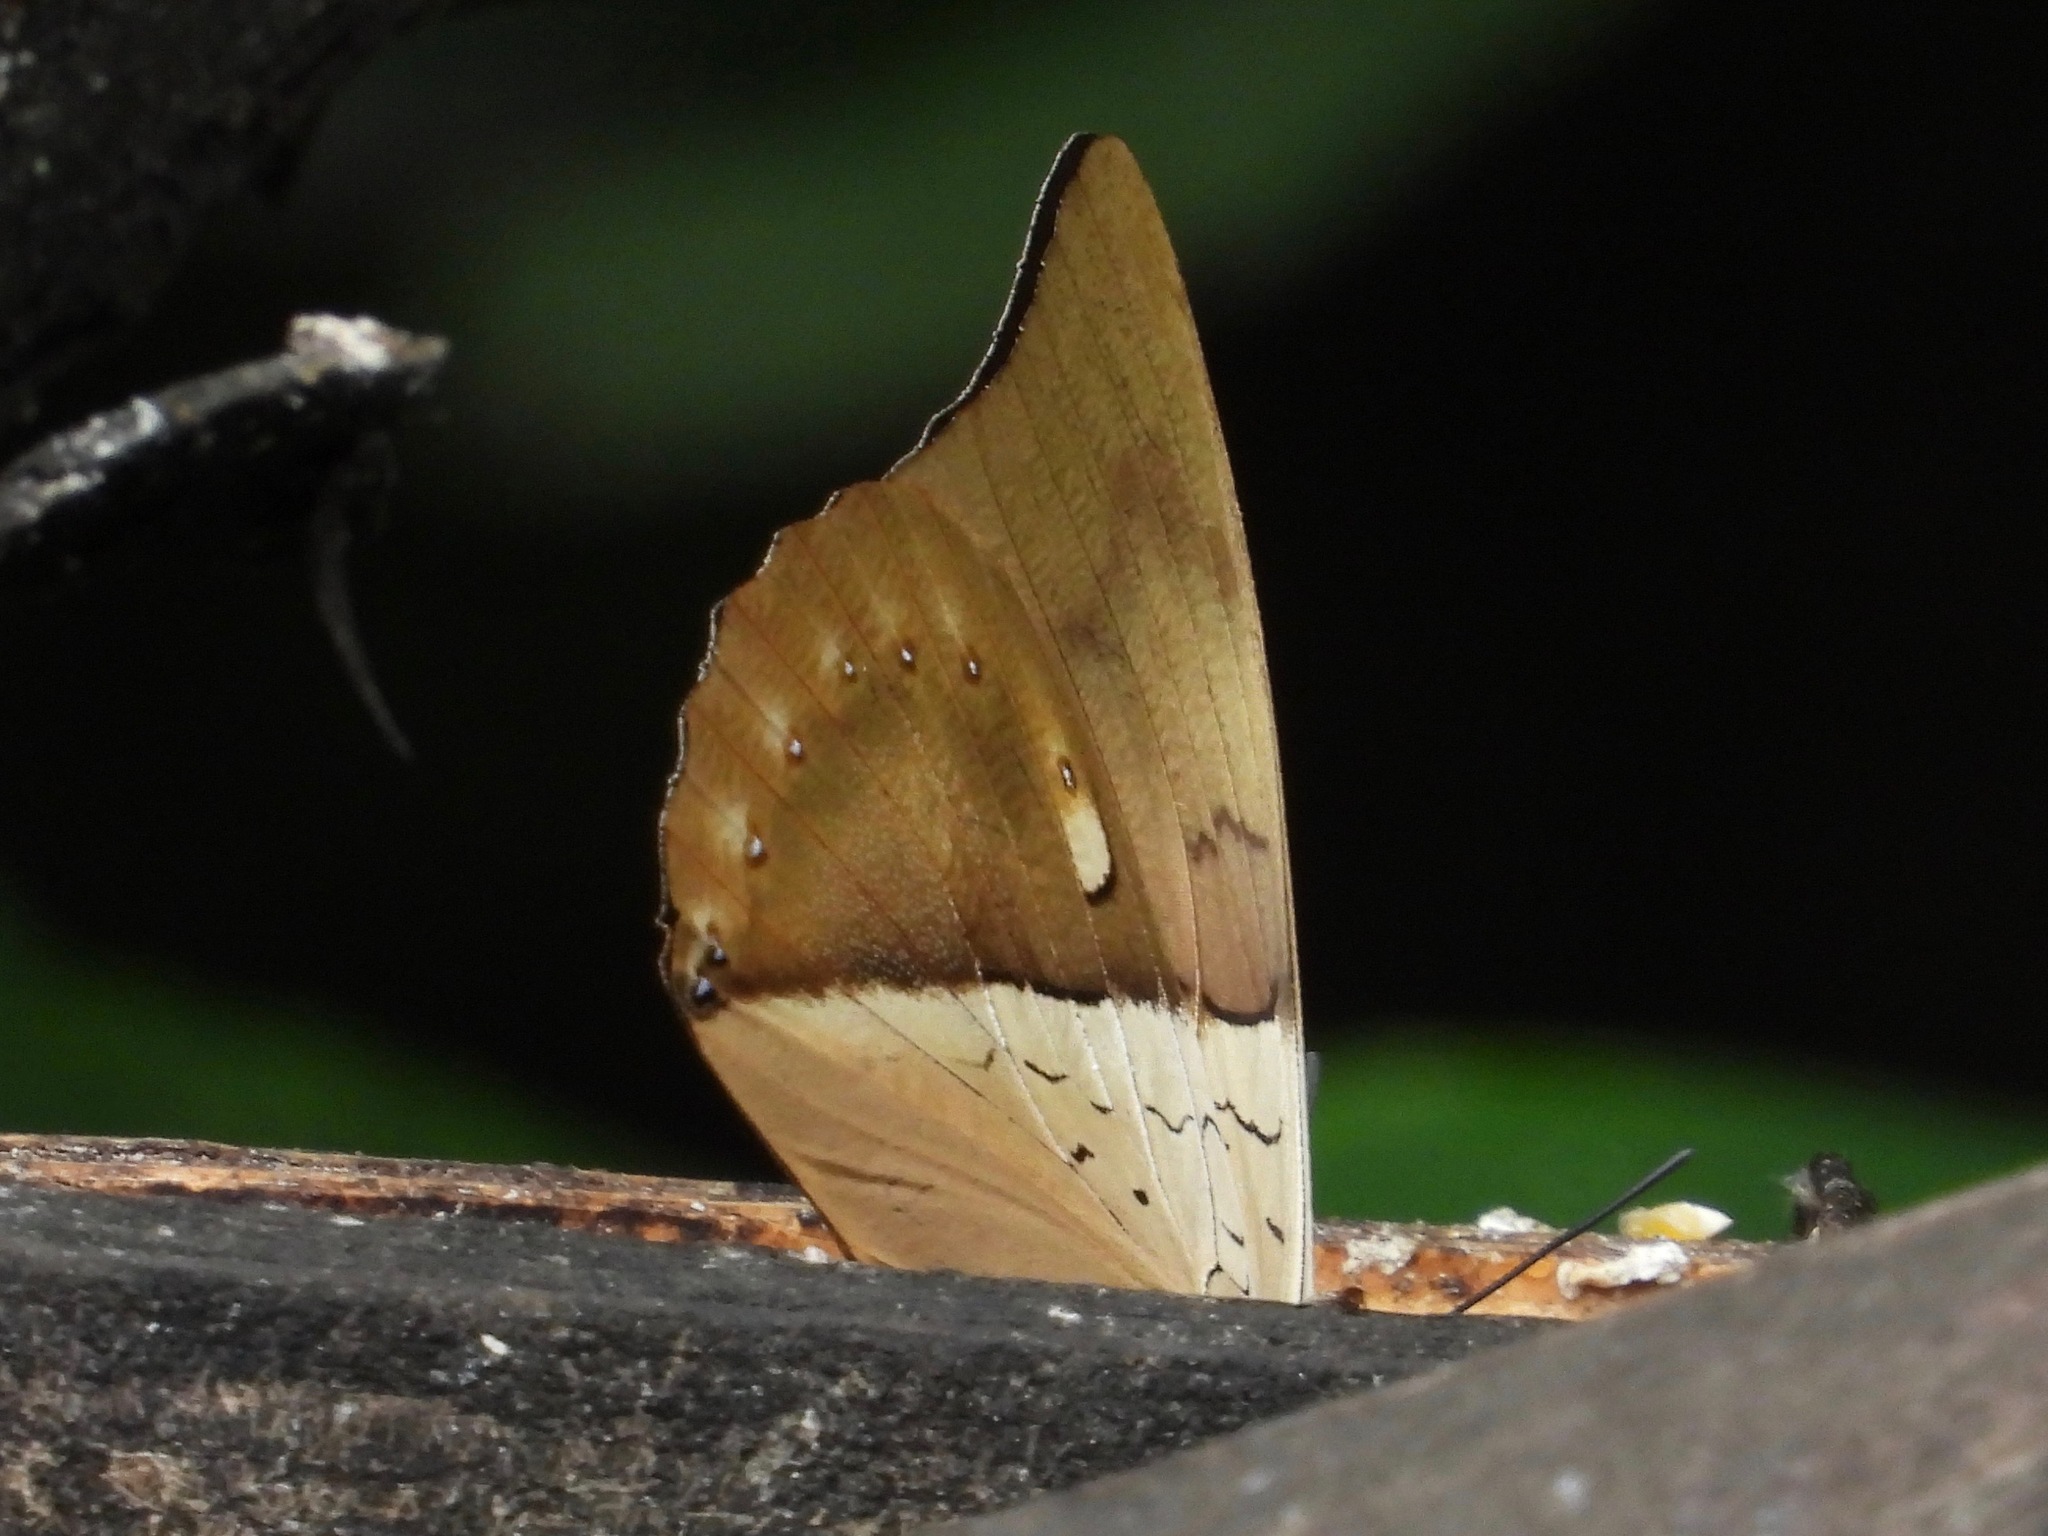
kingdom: Animalia
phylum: Arthropoda
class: Insecta
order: Lepidoptera
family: Nymphalidae
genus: Prepona
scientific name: Prepona meander
